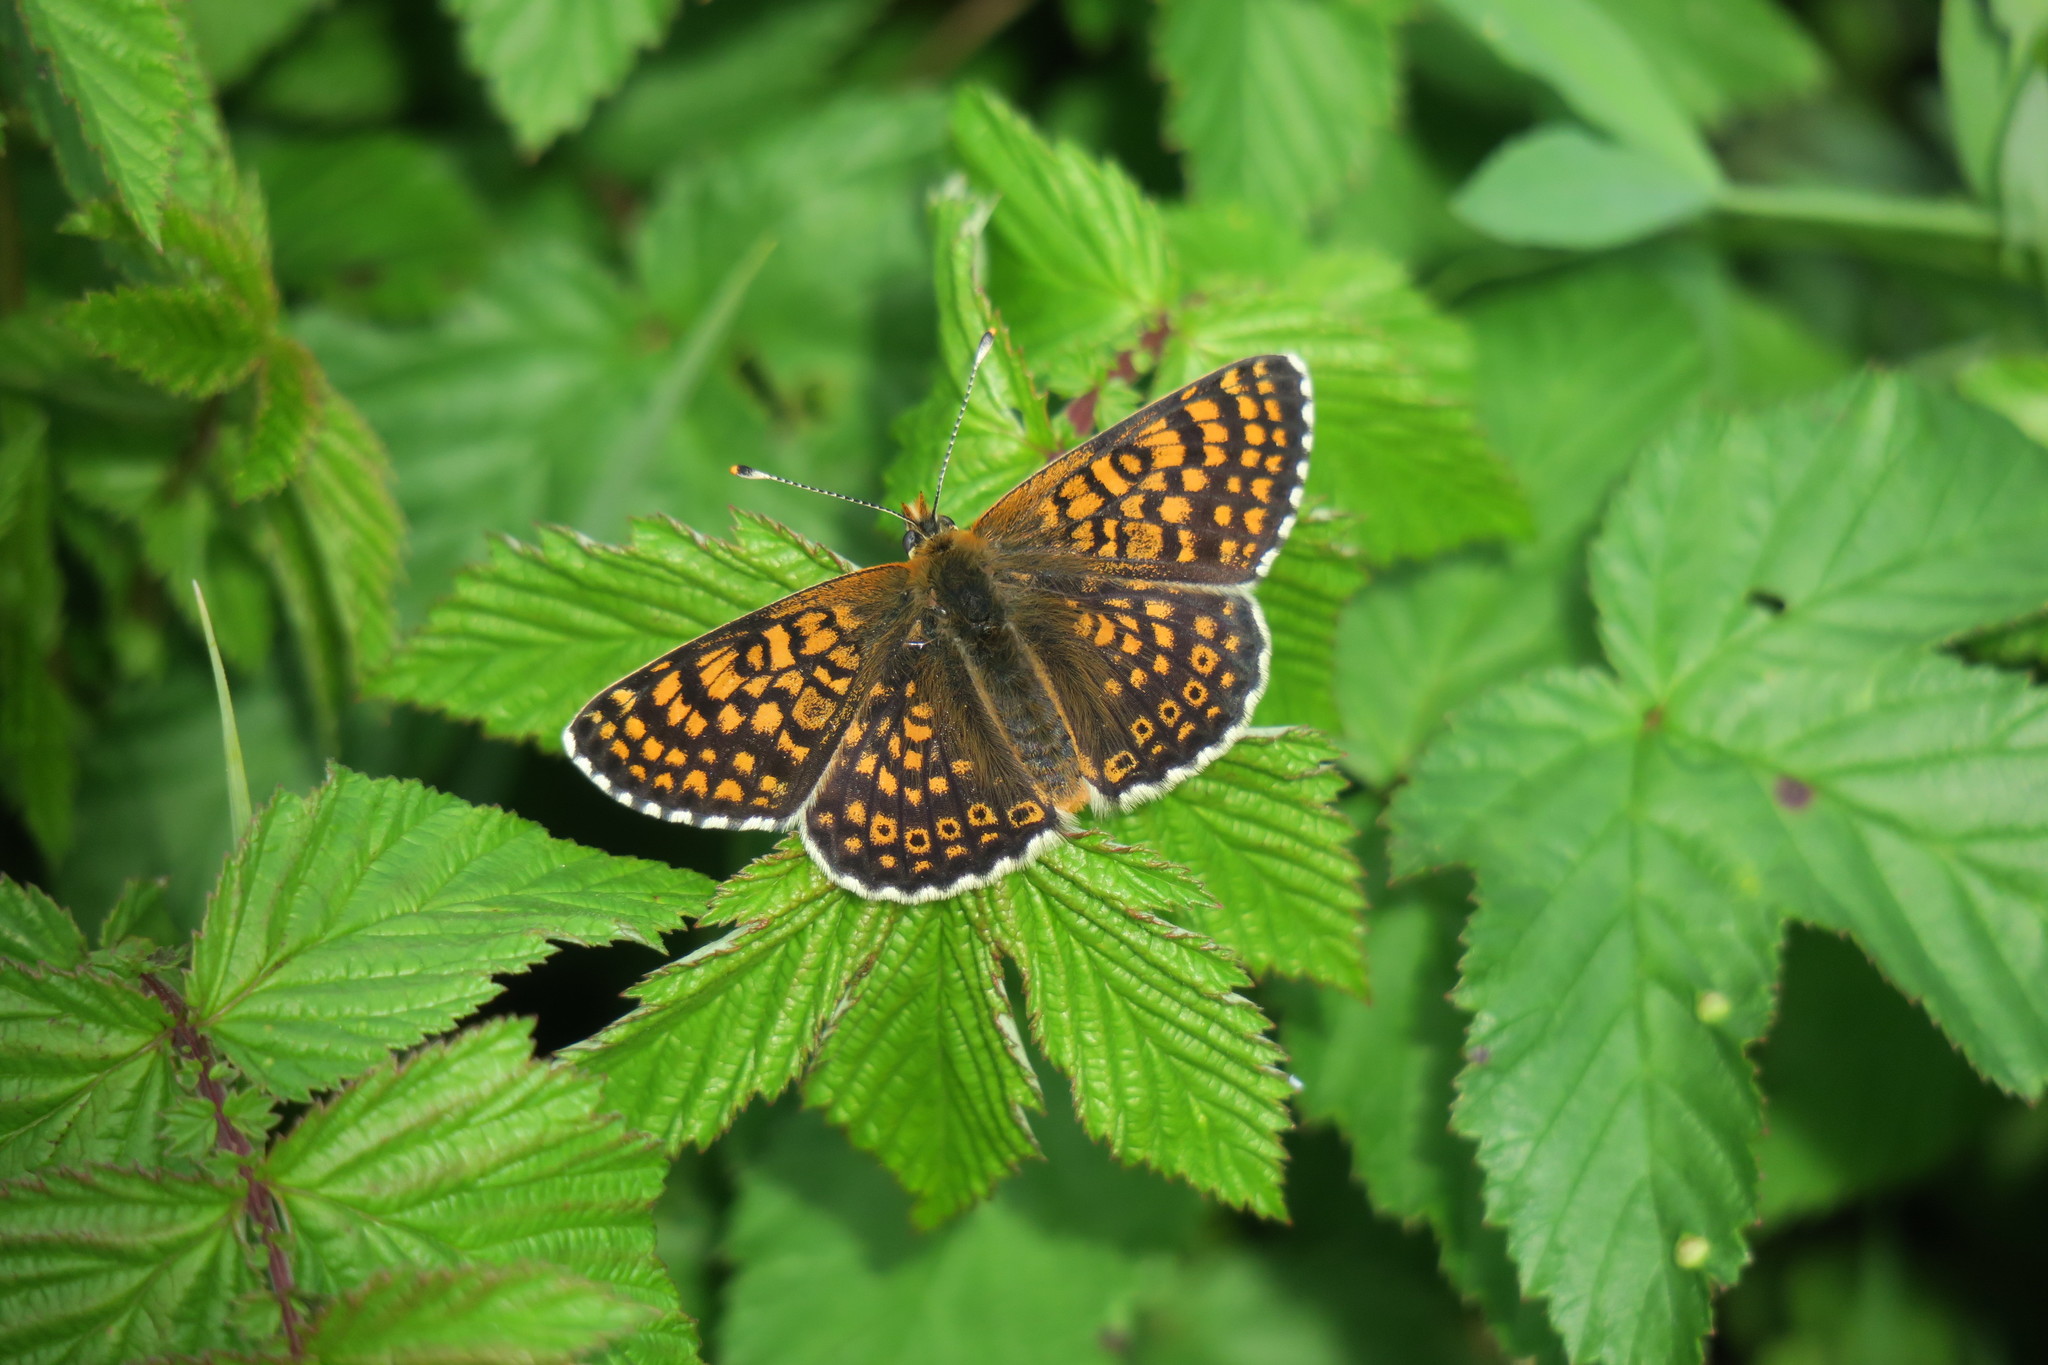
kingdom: Animalia
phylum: Arthropoda
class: Insecta
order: Lepidoptera
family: Nymphalidae
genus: Melitaea
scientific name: Melitaea cinxia
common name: Glanville fritillary
